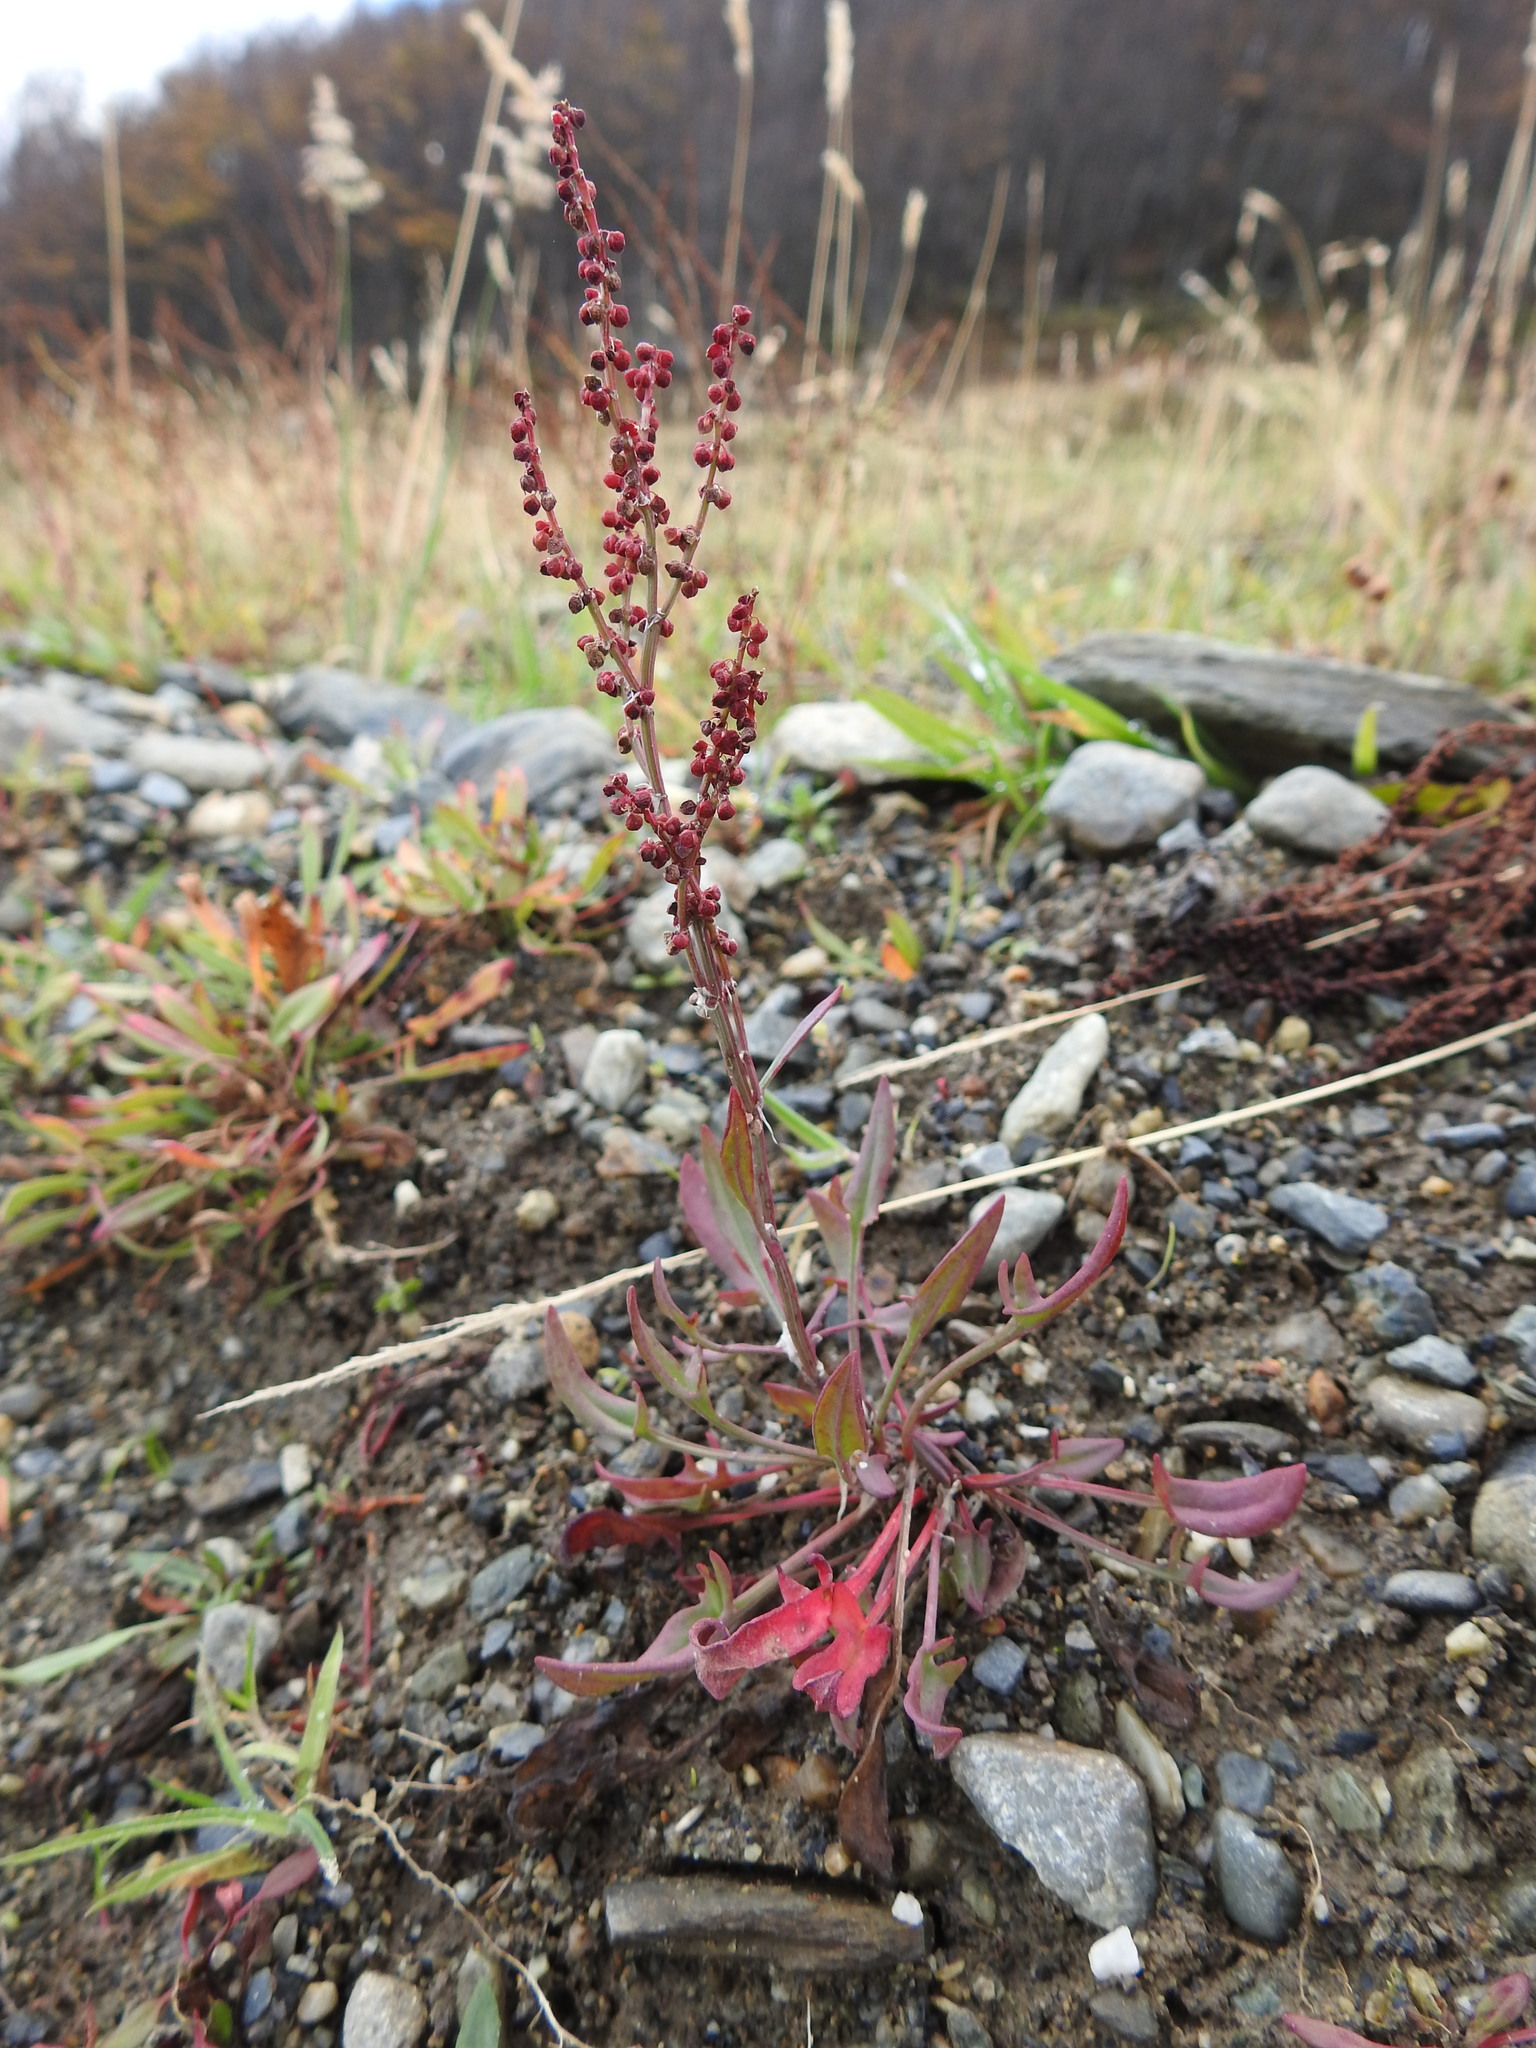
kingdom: Plantae
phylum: Tracheophyta
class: Magnoliopsida
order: Caryophyllales
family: Polygonaceae
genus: Rumex
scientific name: Rumex acetosella
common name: Common sheep sorrel
